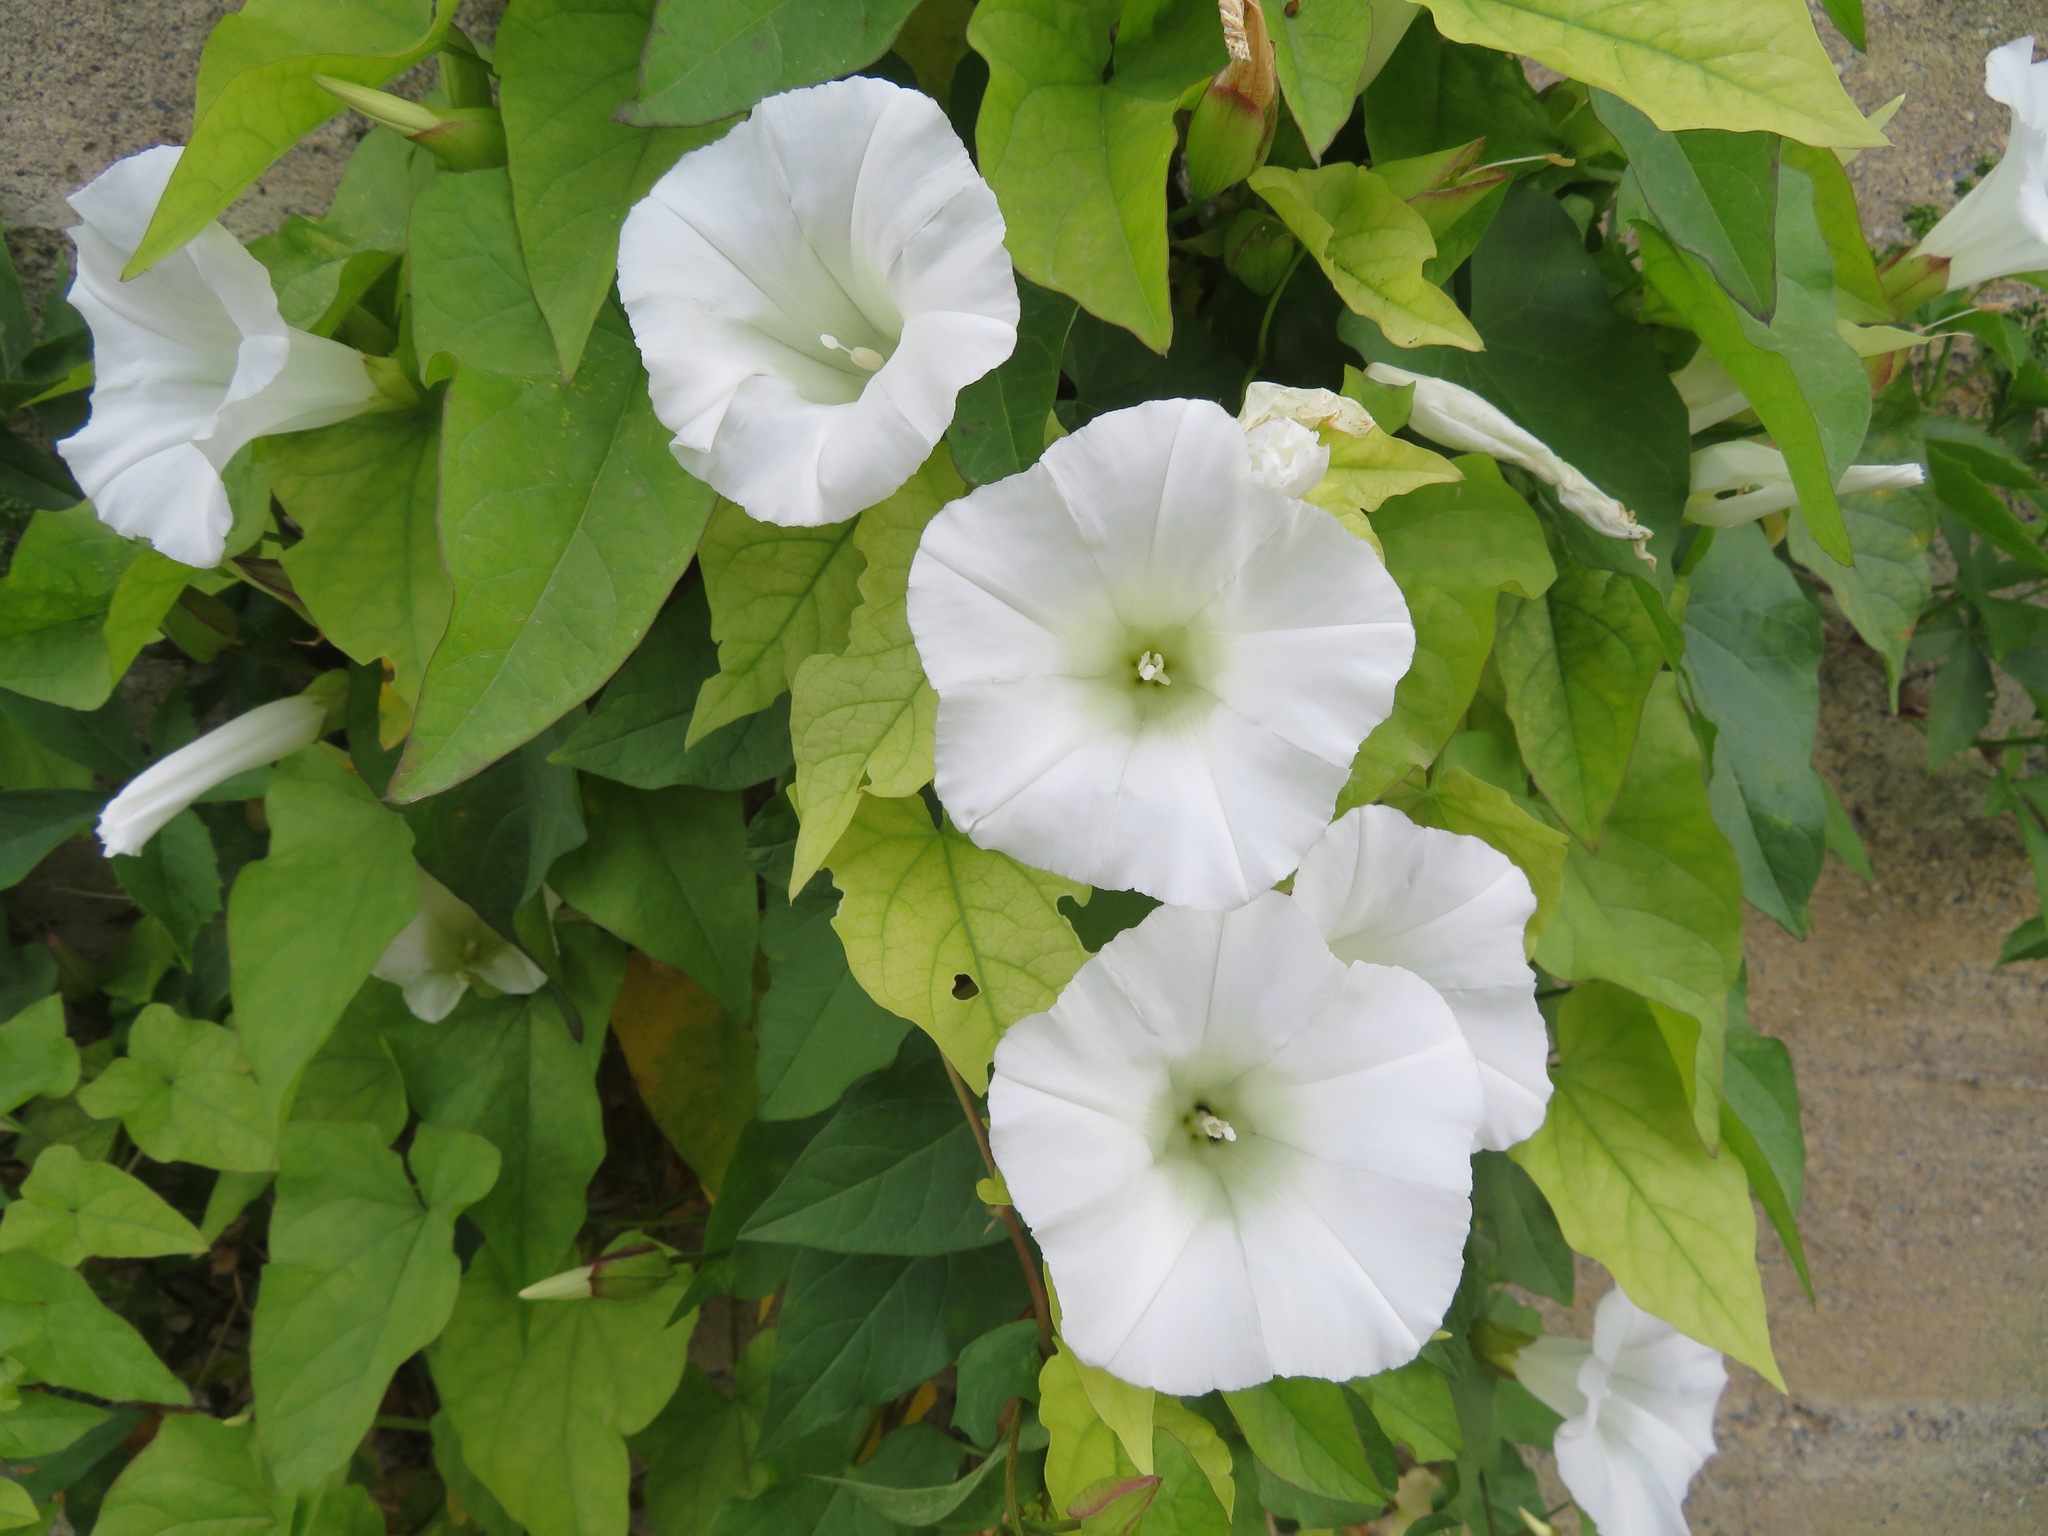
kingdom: Plantae
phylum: Tracheophyta
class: Magnoliopsida
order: Solanales
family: Convolvulaceae
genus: Calystegia
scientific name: Calystegia silvatica
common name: Large bindweed
